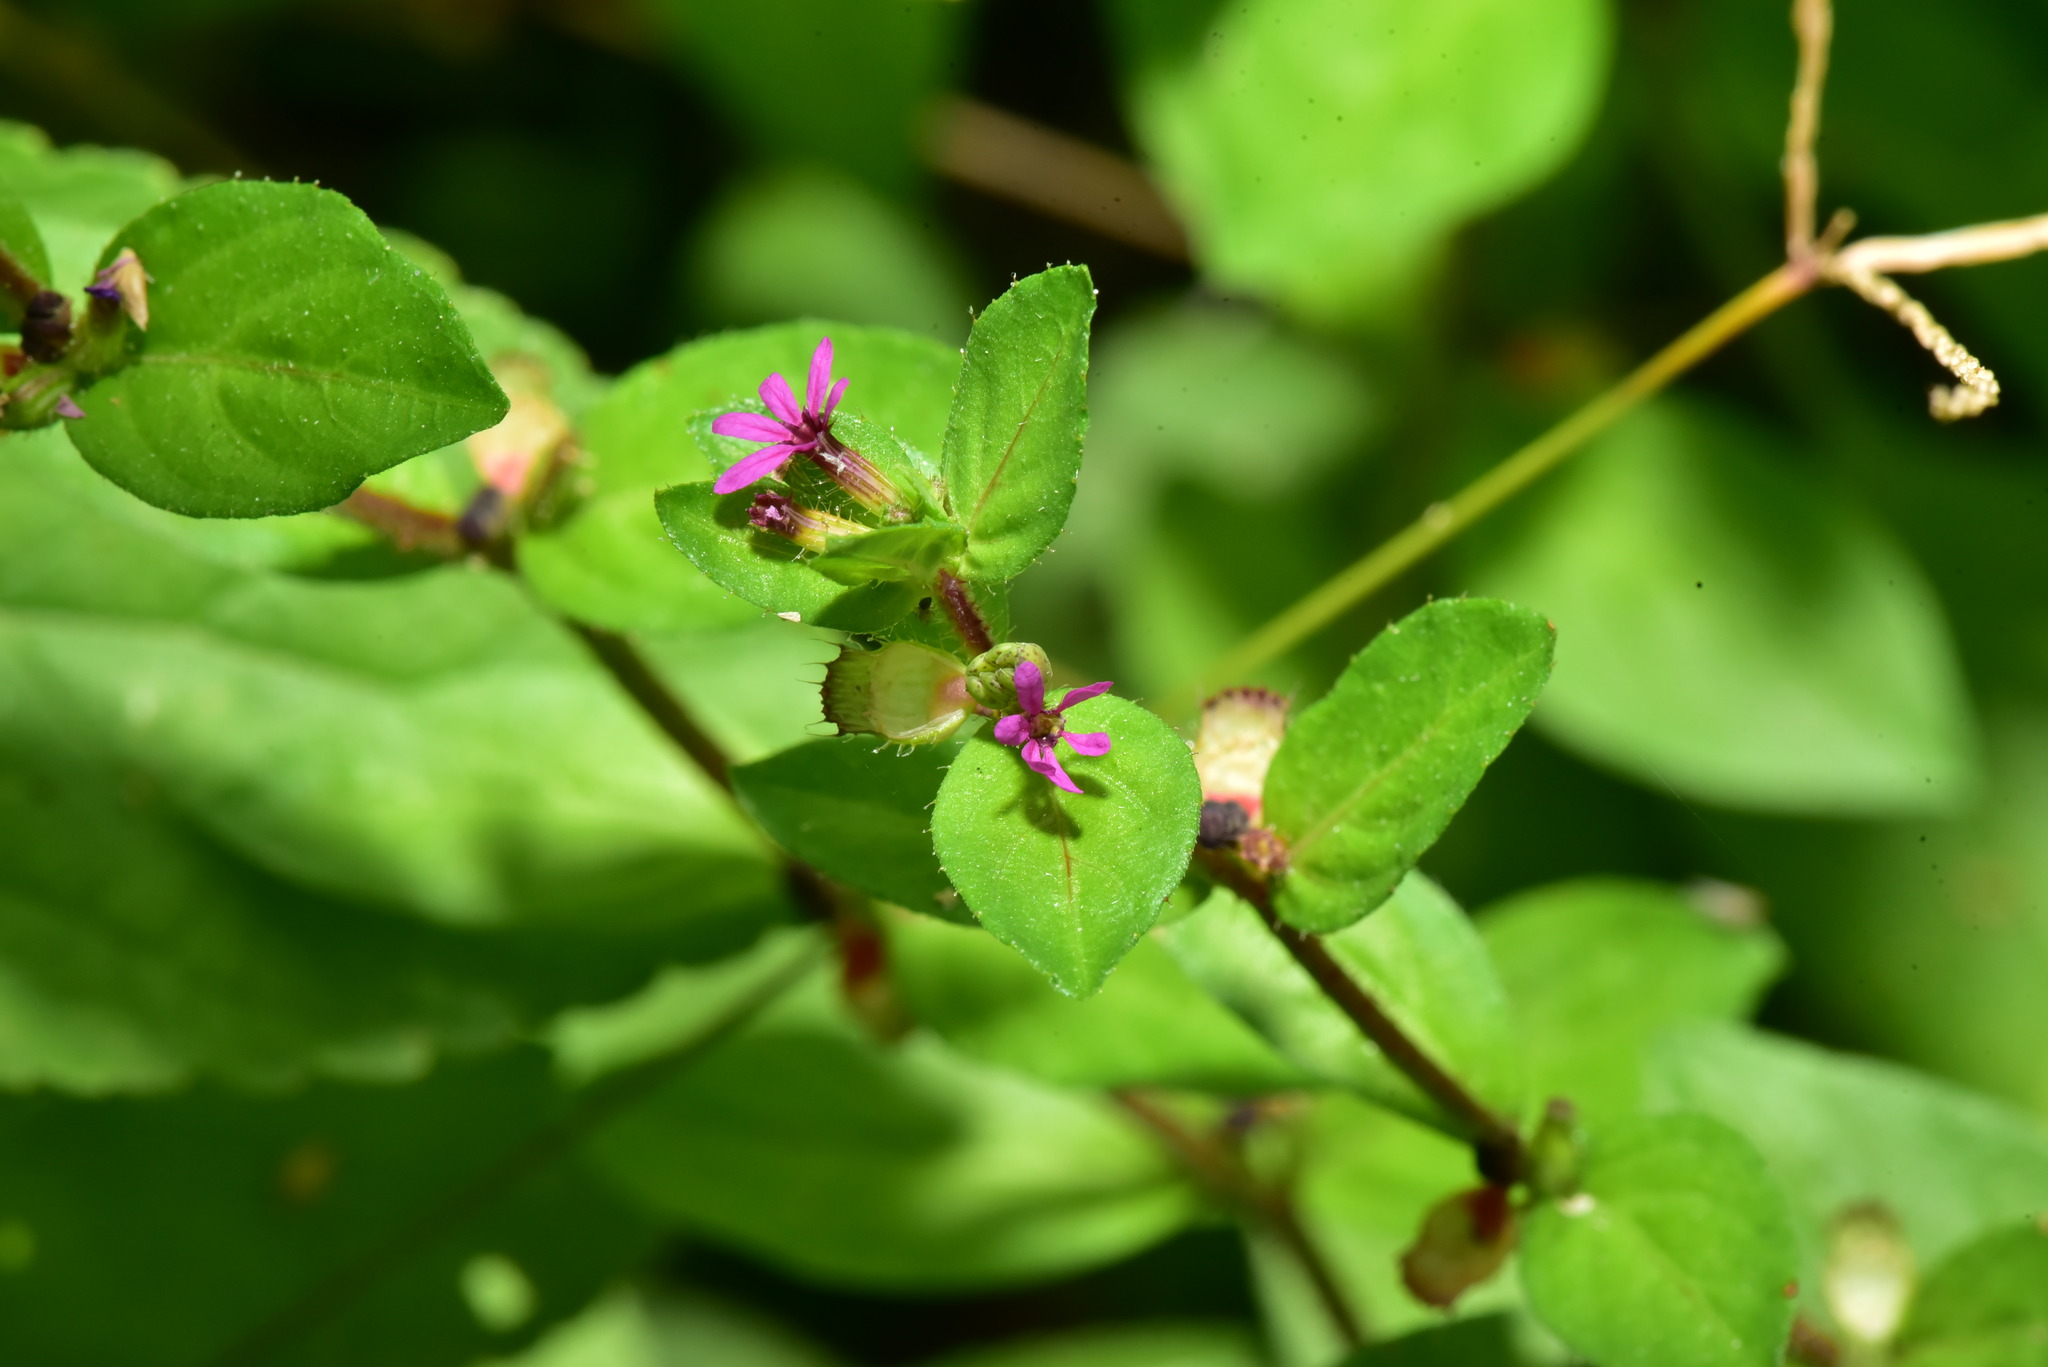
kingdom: Plantae
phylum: Tracheophyta
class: Magnoliopsida
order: Myrtales
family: Lythraceae
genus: Cuphea
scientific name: Cuphea carthagenensis
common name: Colombian waxweed
